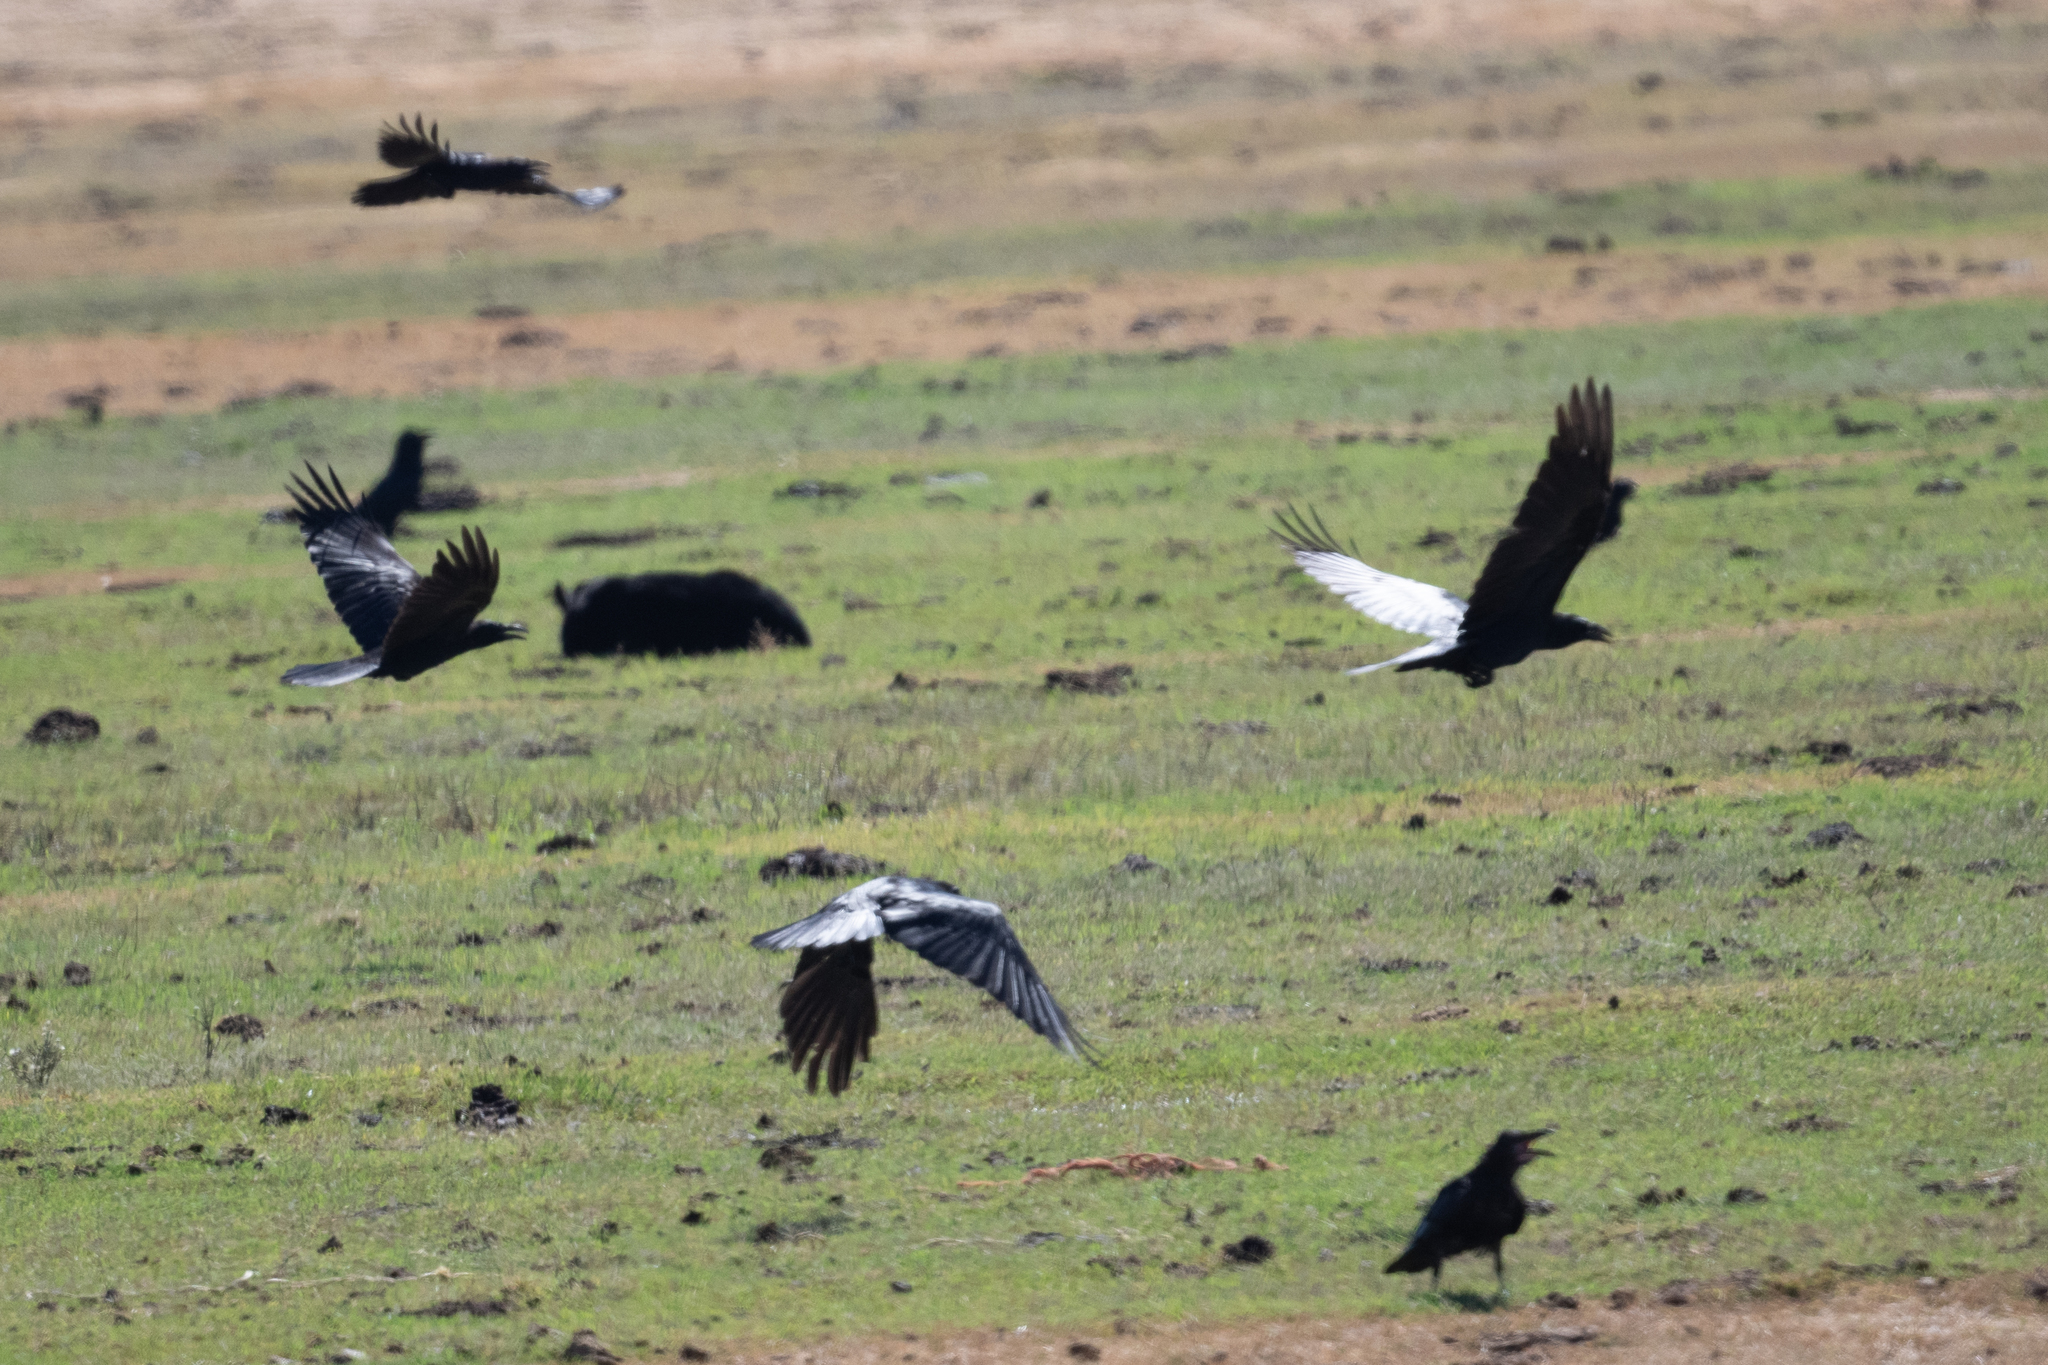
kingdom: Animalia
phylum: Chordata
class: Aves
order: Passeriformes
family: Corvidae
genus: Corvus
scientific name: Corvus corax
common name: Common raven
